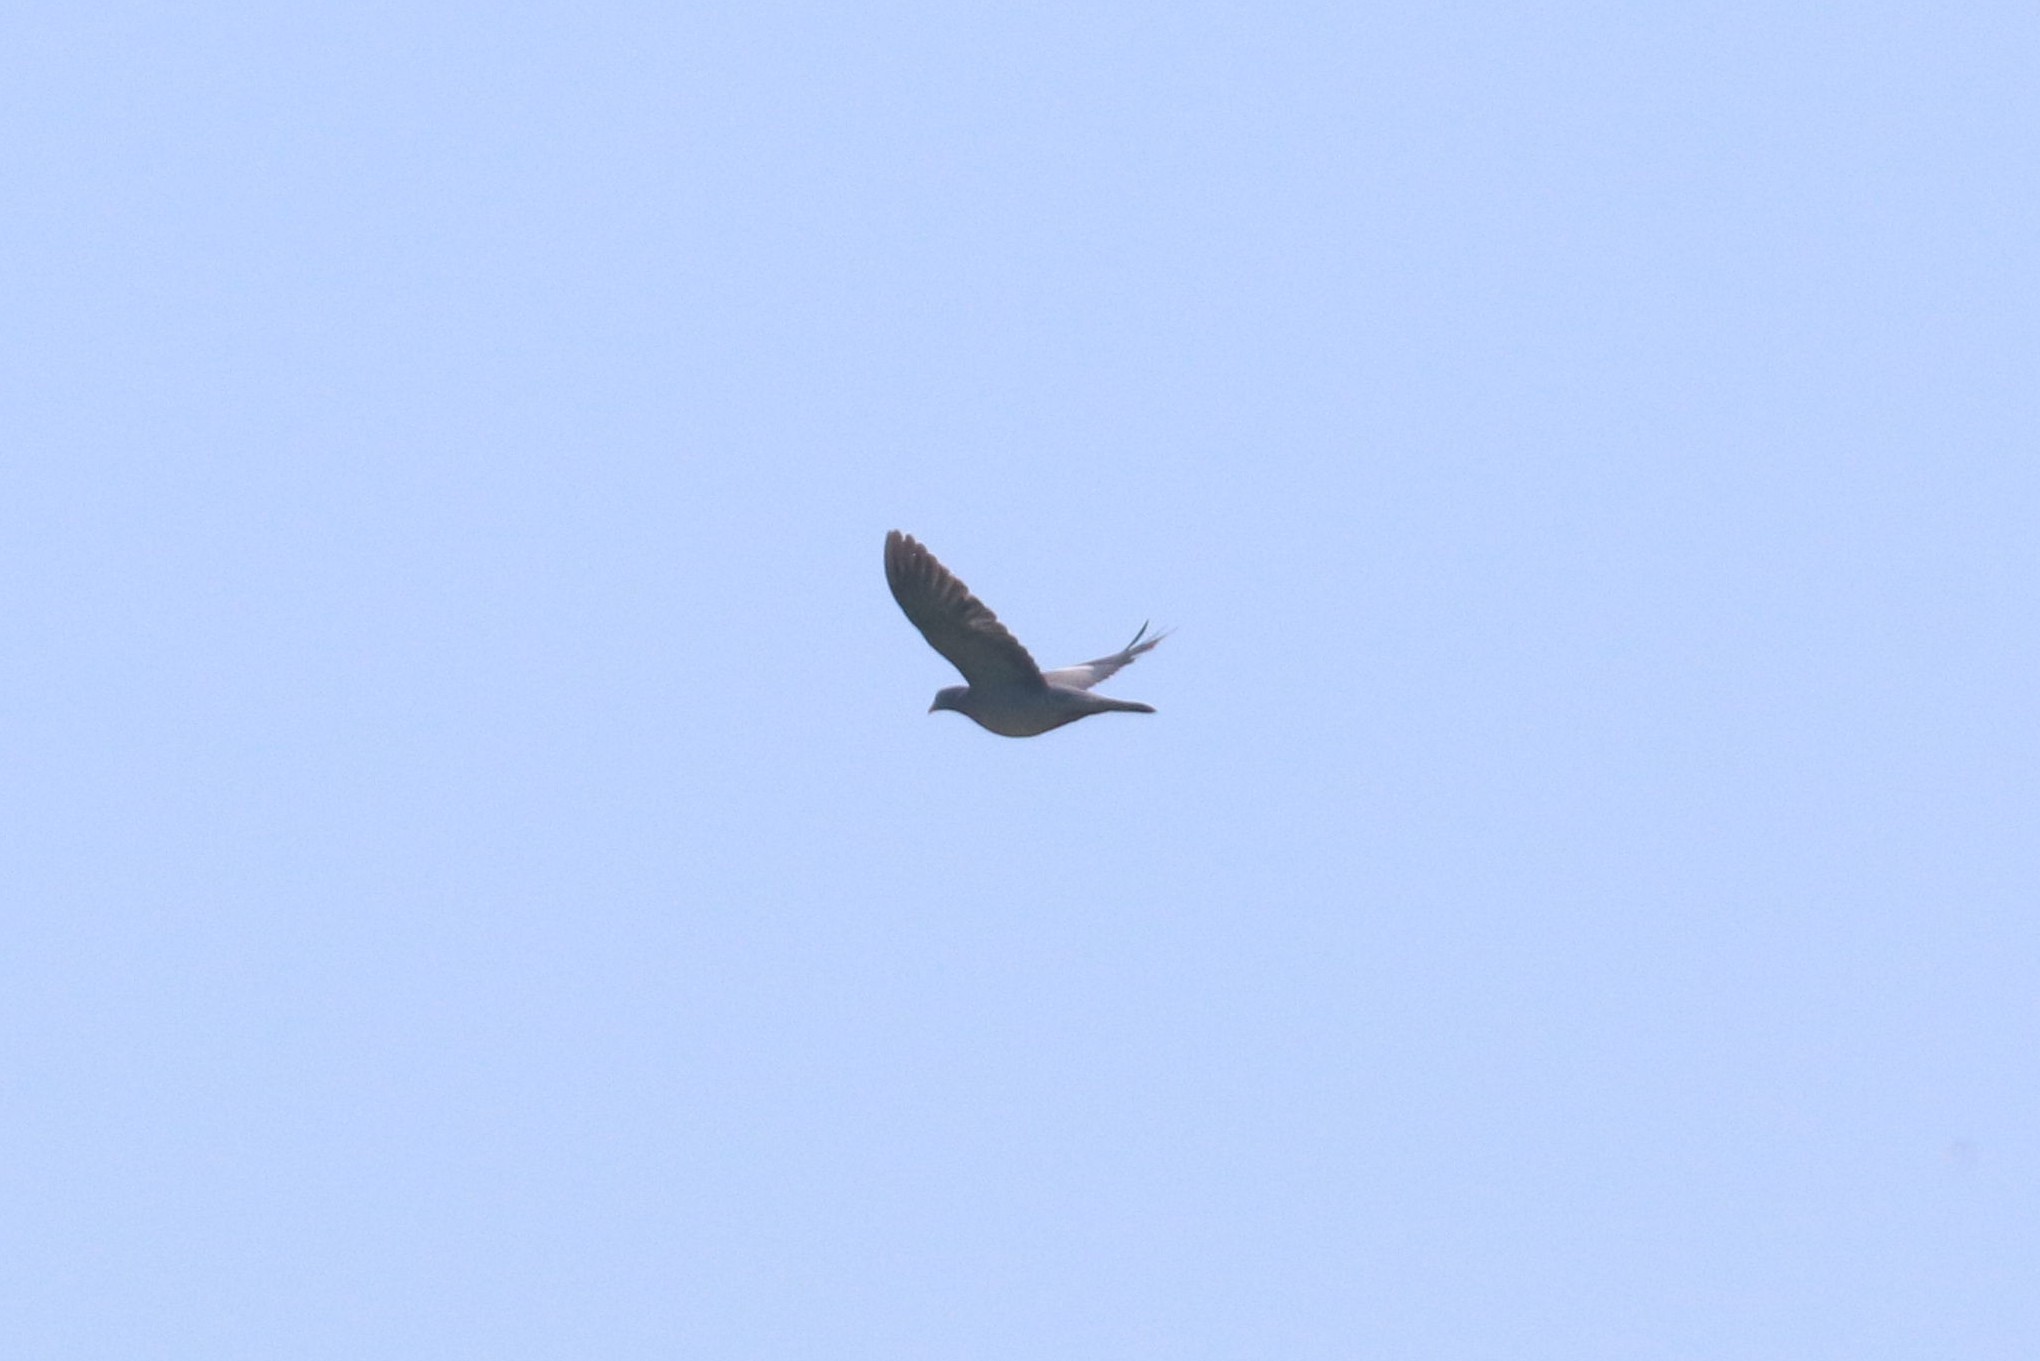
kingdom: Animalia
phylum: Chordata
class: Aves
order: Columbiformes
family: Columbidae
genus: Columba
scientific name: Columba palumbus
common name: Common wood pigeon
